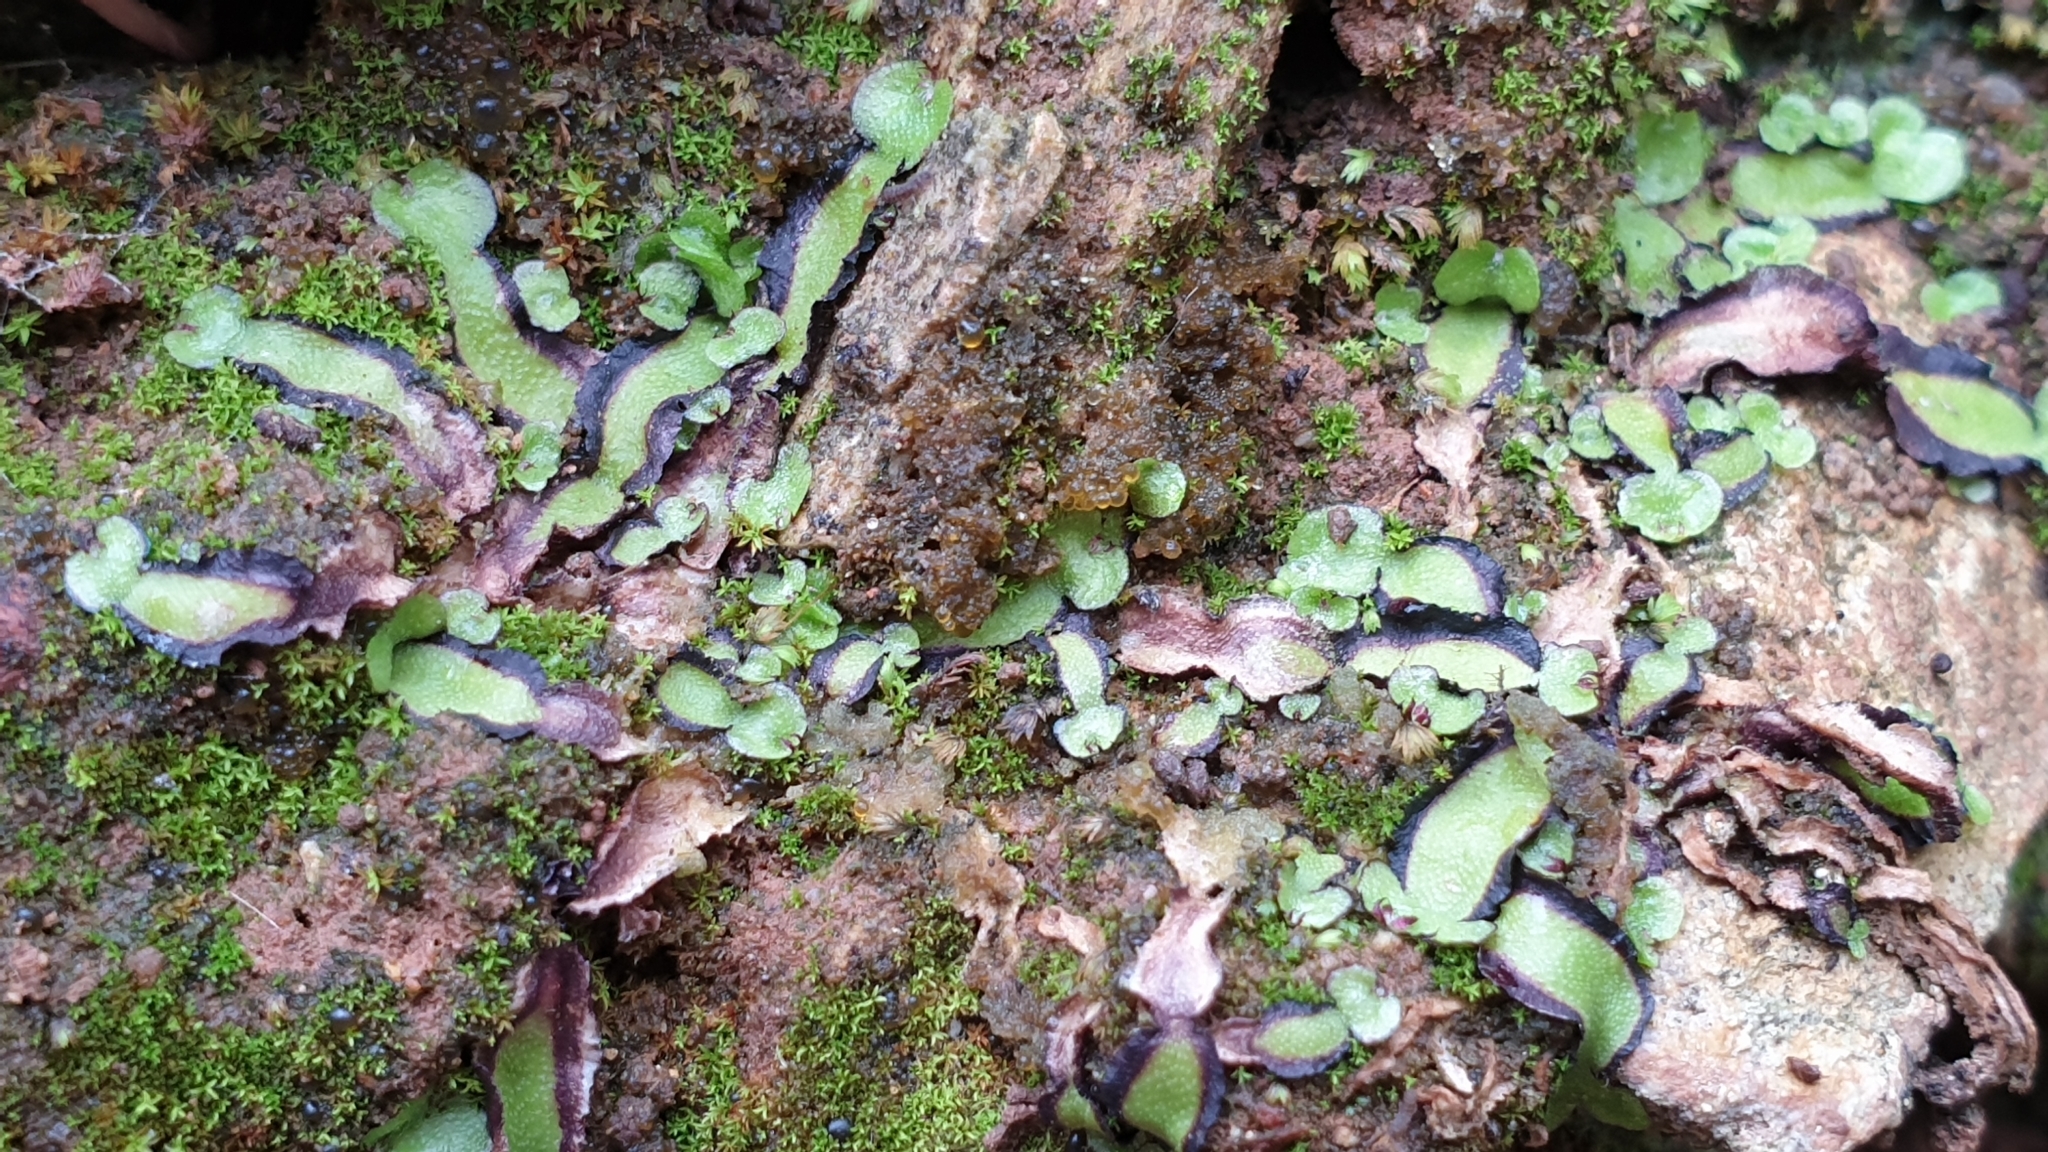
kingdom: Plantae
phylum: Marchantiophyta
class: Marchantiopsida
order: Marchantiales
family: Aytoniaceae
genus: Asterella
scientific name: Asterella drummondii
